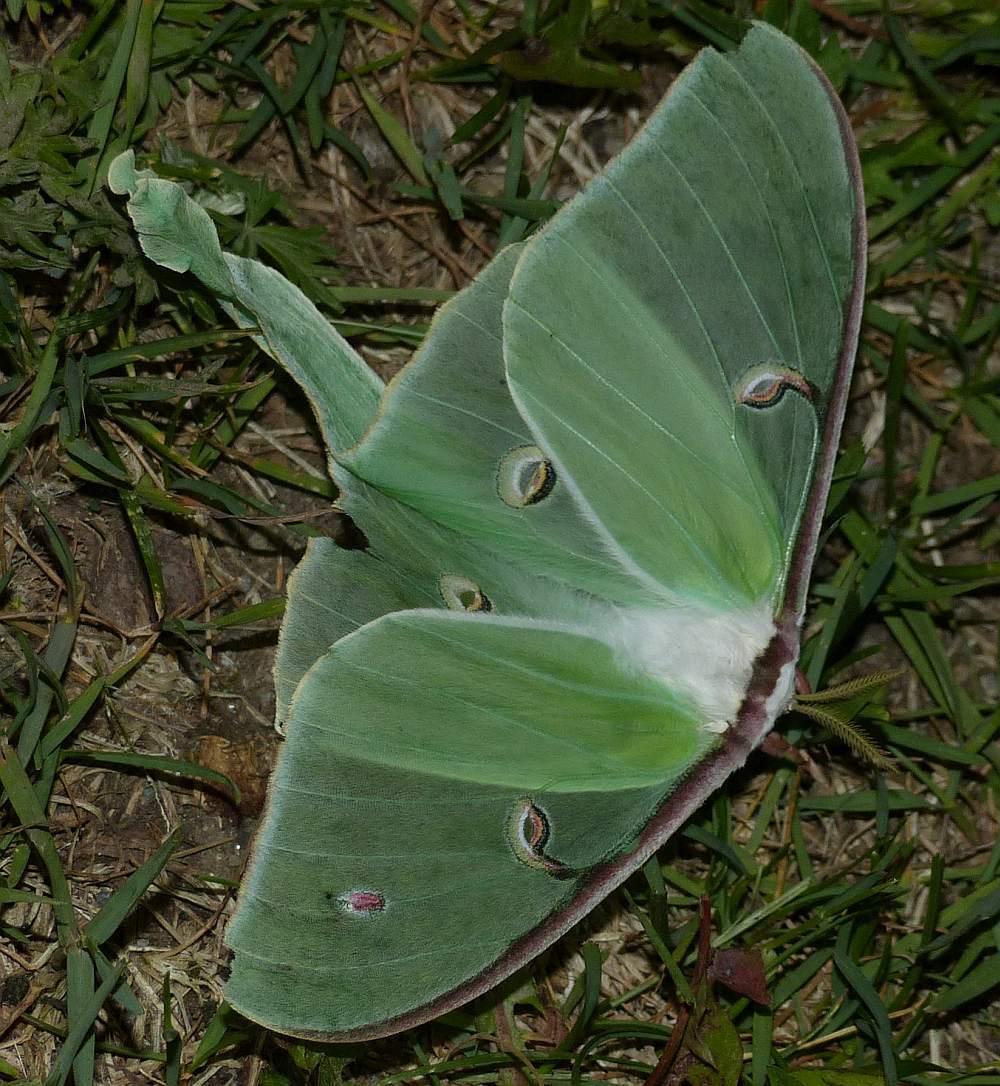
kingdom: Animalia
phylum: Arthropoda
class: Insecta
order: Lepidoptera
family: Saturniidae
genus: Actias
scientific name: Actias luna
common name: Luna moth
